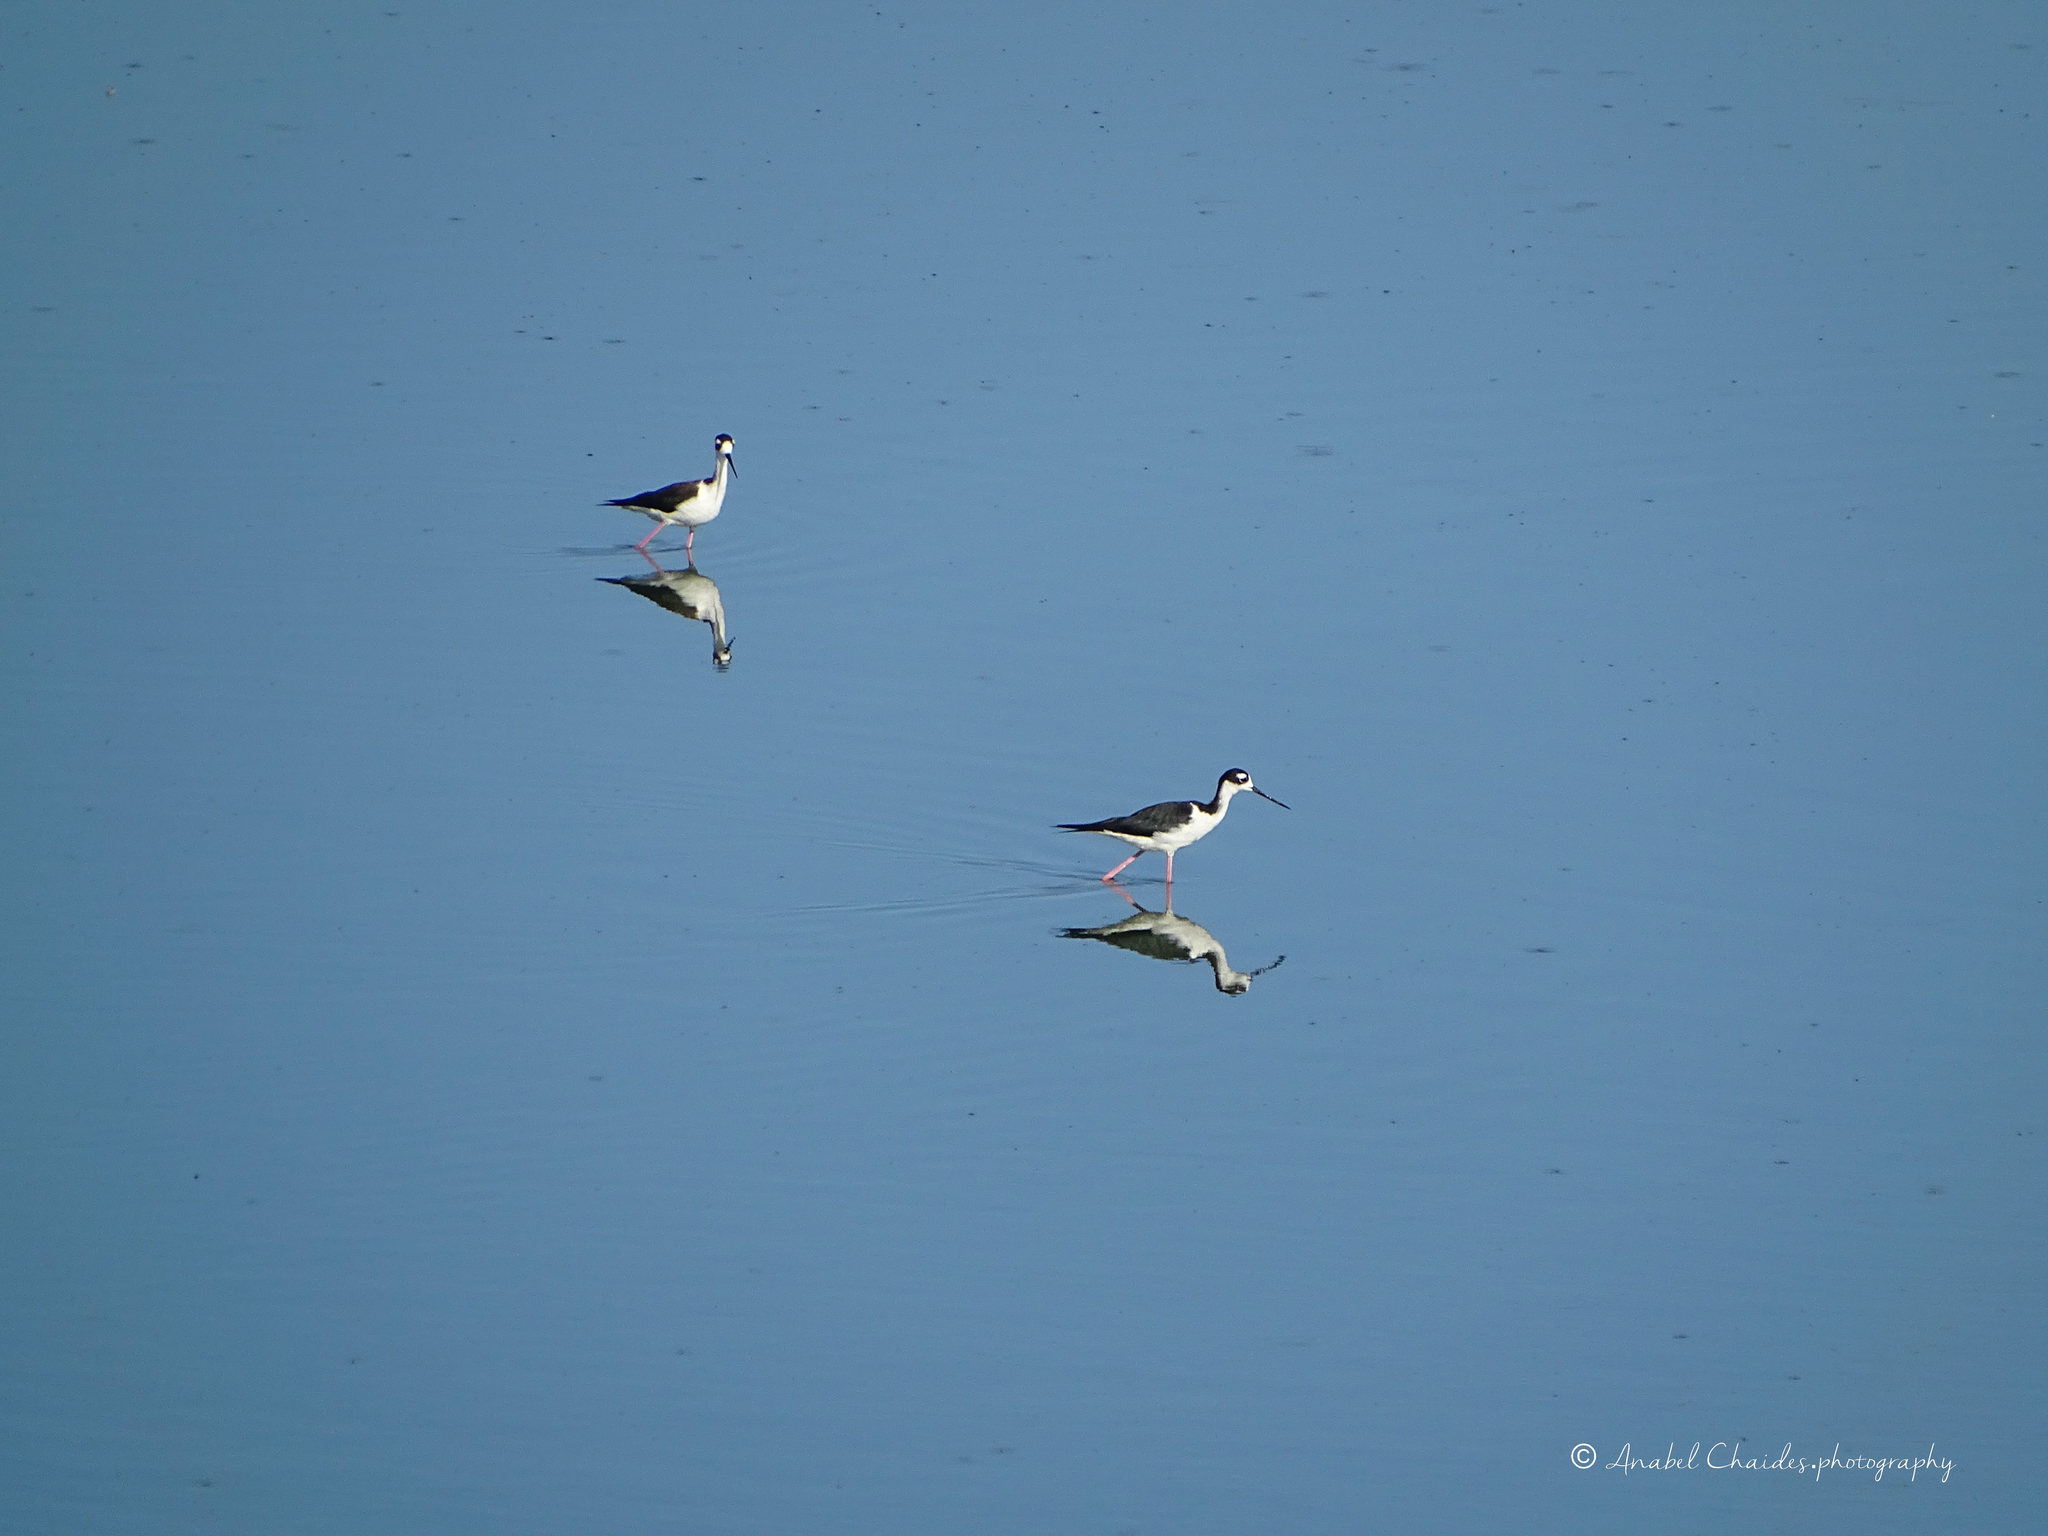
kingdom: Animalia
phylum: Chordata
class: Aves
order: Charadriiformes
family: Recurvirostridae
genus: Himantopus
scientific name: Himantopus mexicanus
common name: Black-necked stilt
